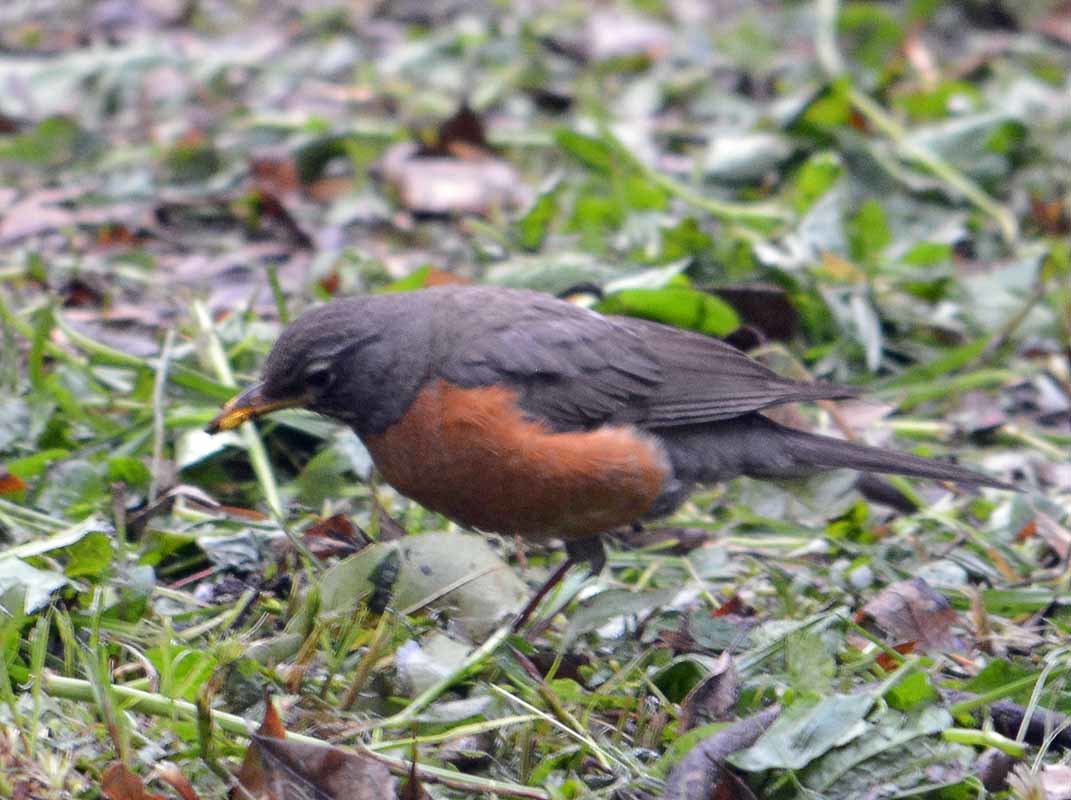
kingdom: Animalia
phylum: Chordata
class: Aves
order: Passeriformes
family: Turdidae
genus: Turdus
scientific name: Turdus migratorius
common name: American robin
